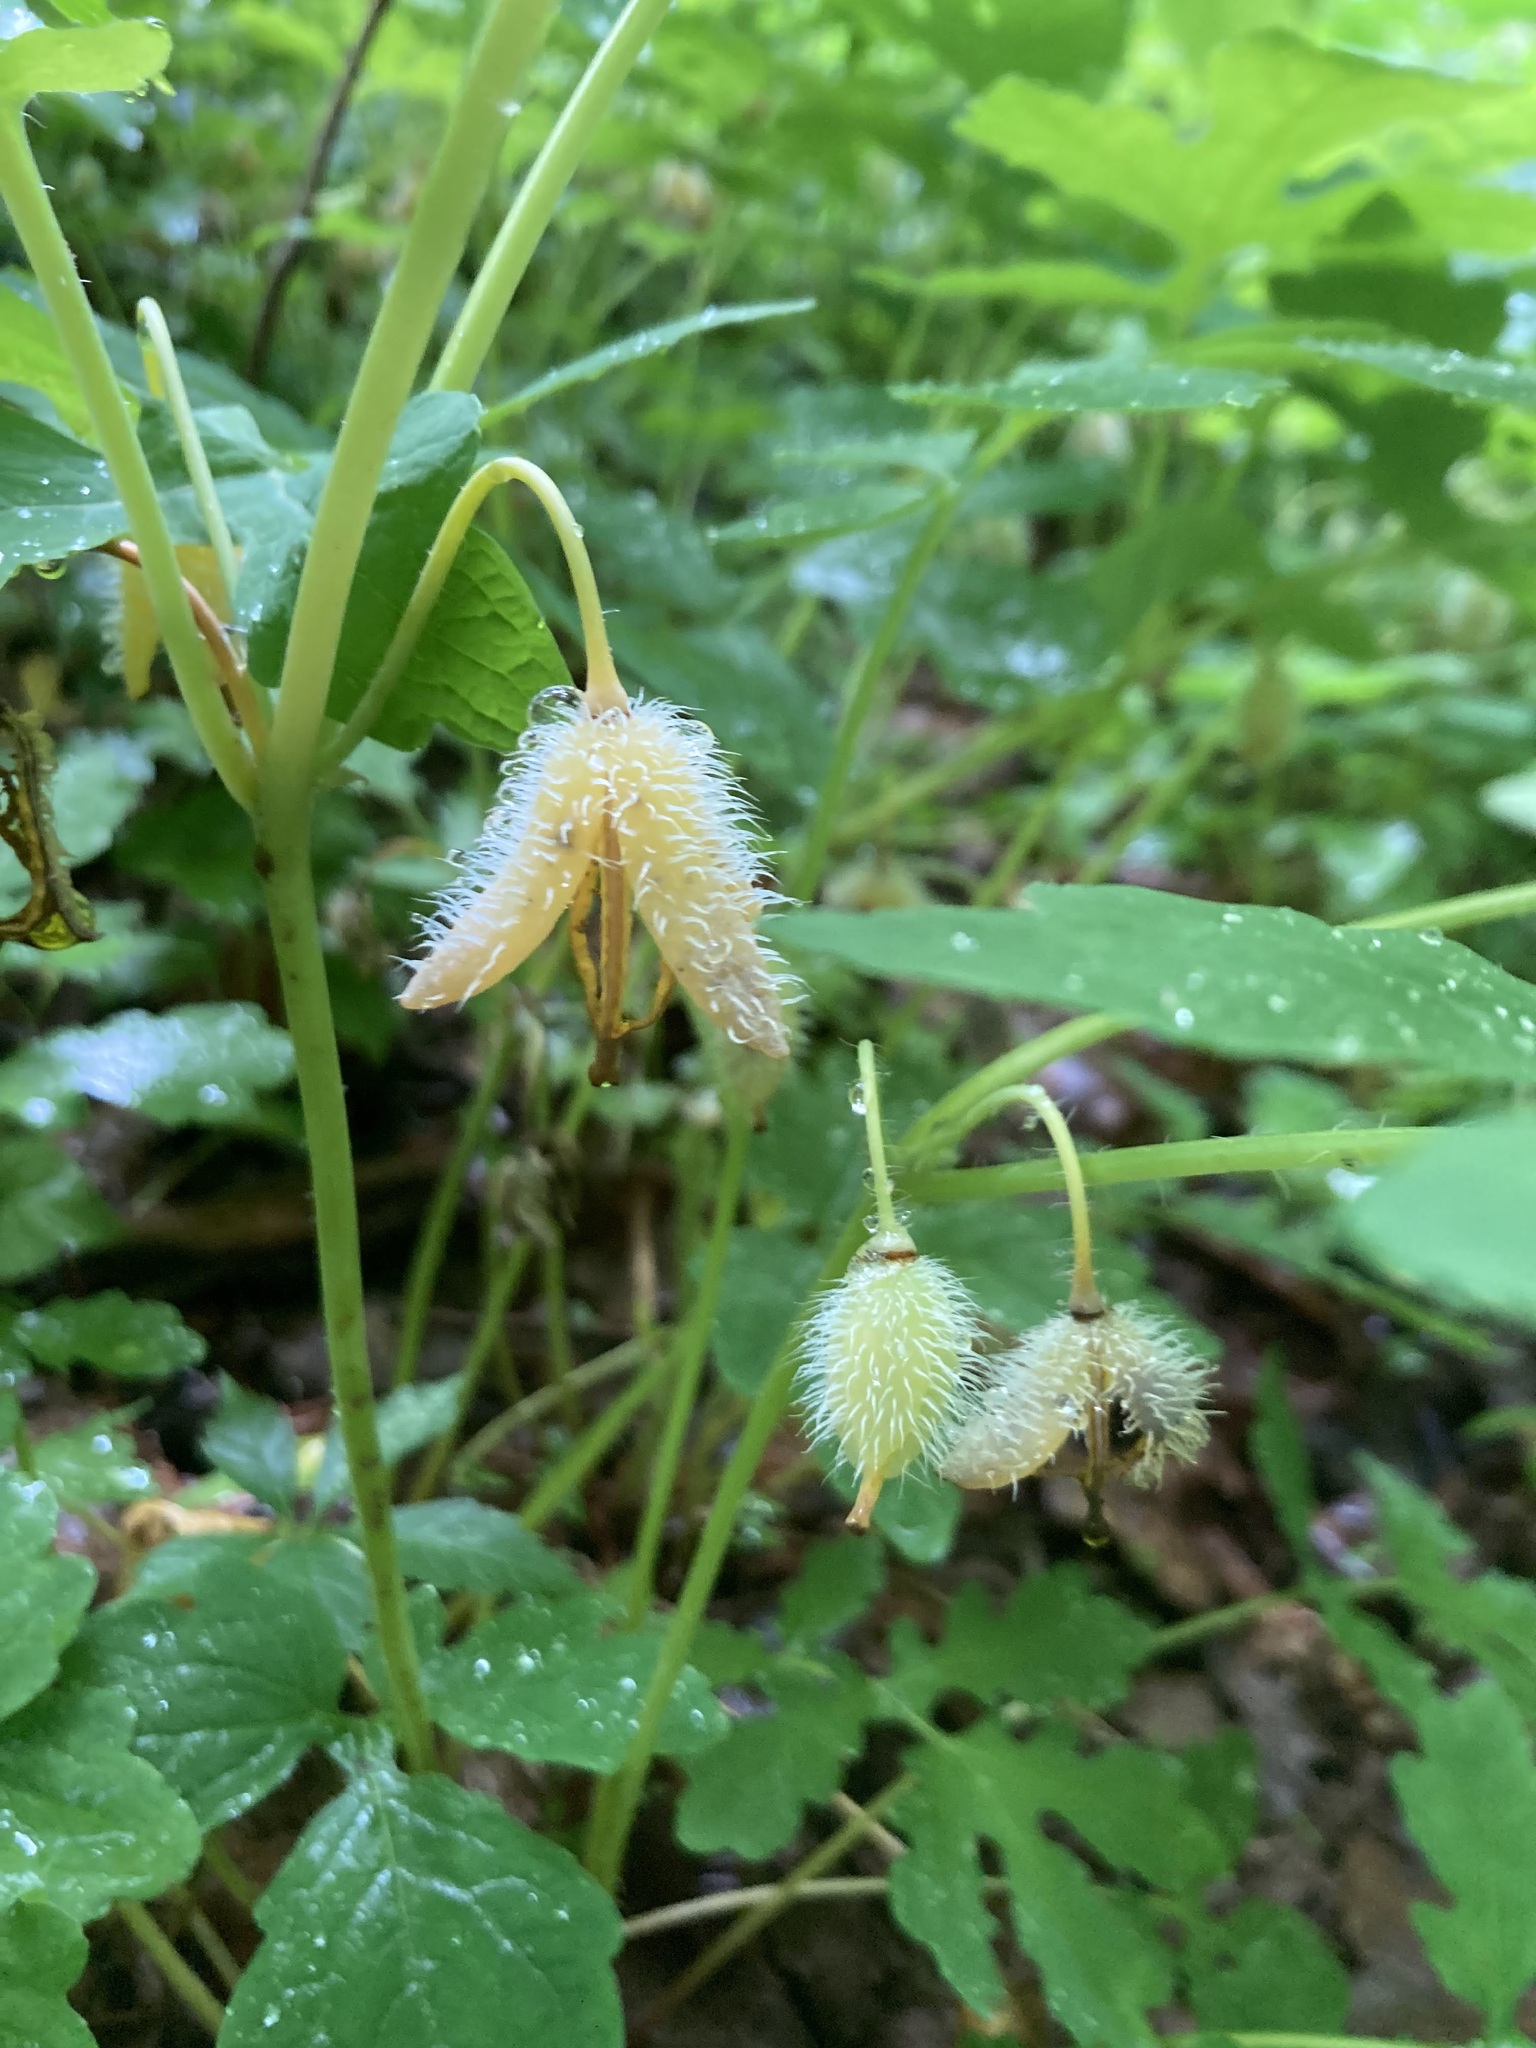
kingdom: Plantae
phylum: Tracheophyta
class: Magnoliopsida
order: Ranunculales
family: Papaveraceae
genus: Stylophorum
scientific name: Stylophorum diphyllum
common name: Celandine poppy
